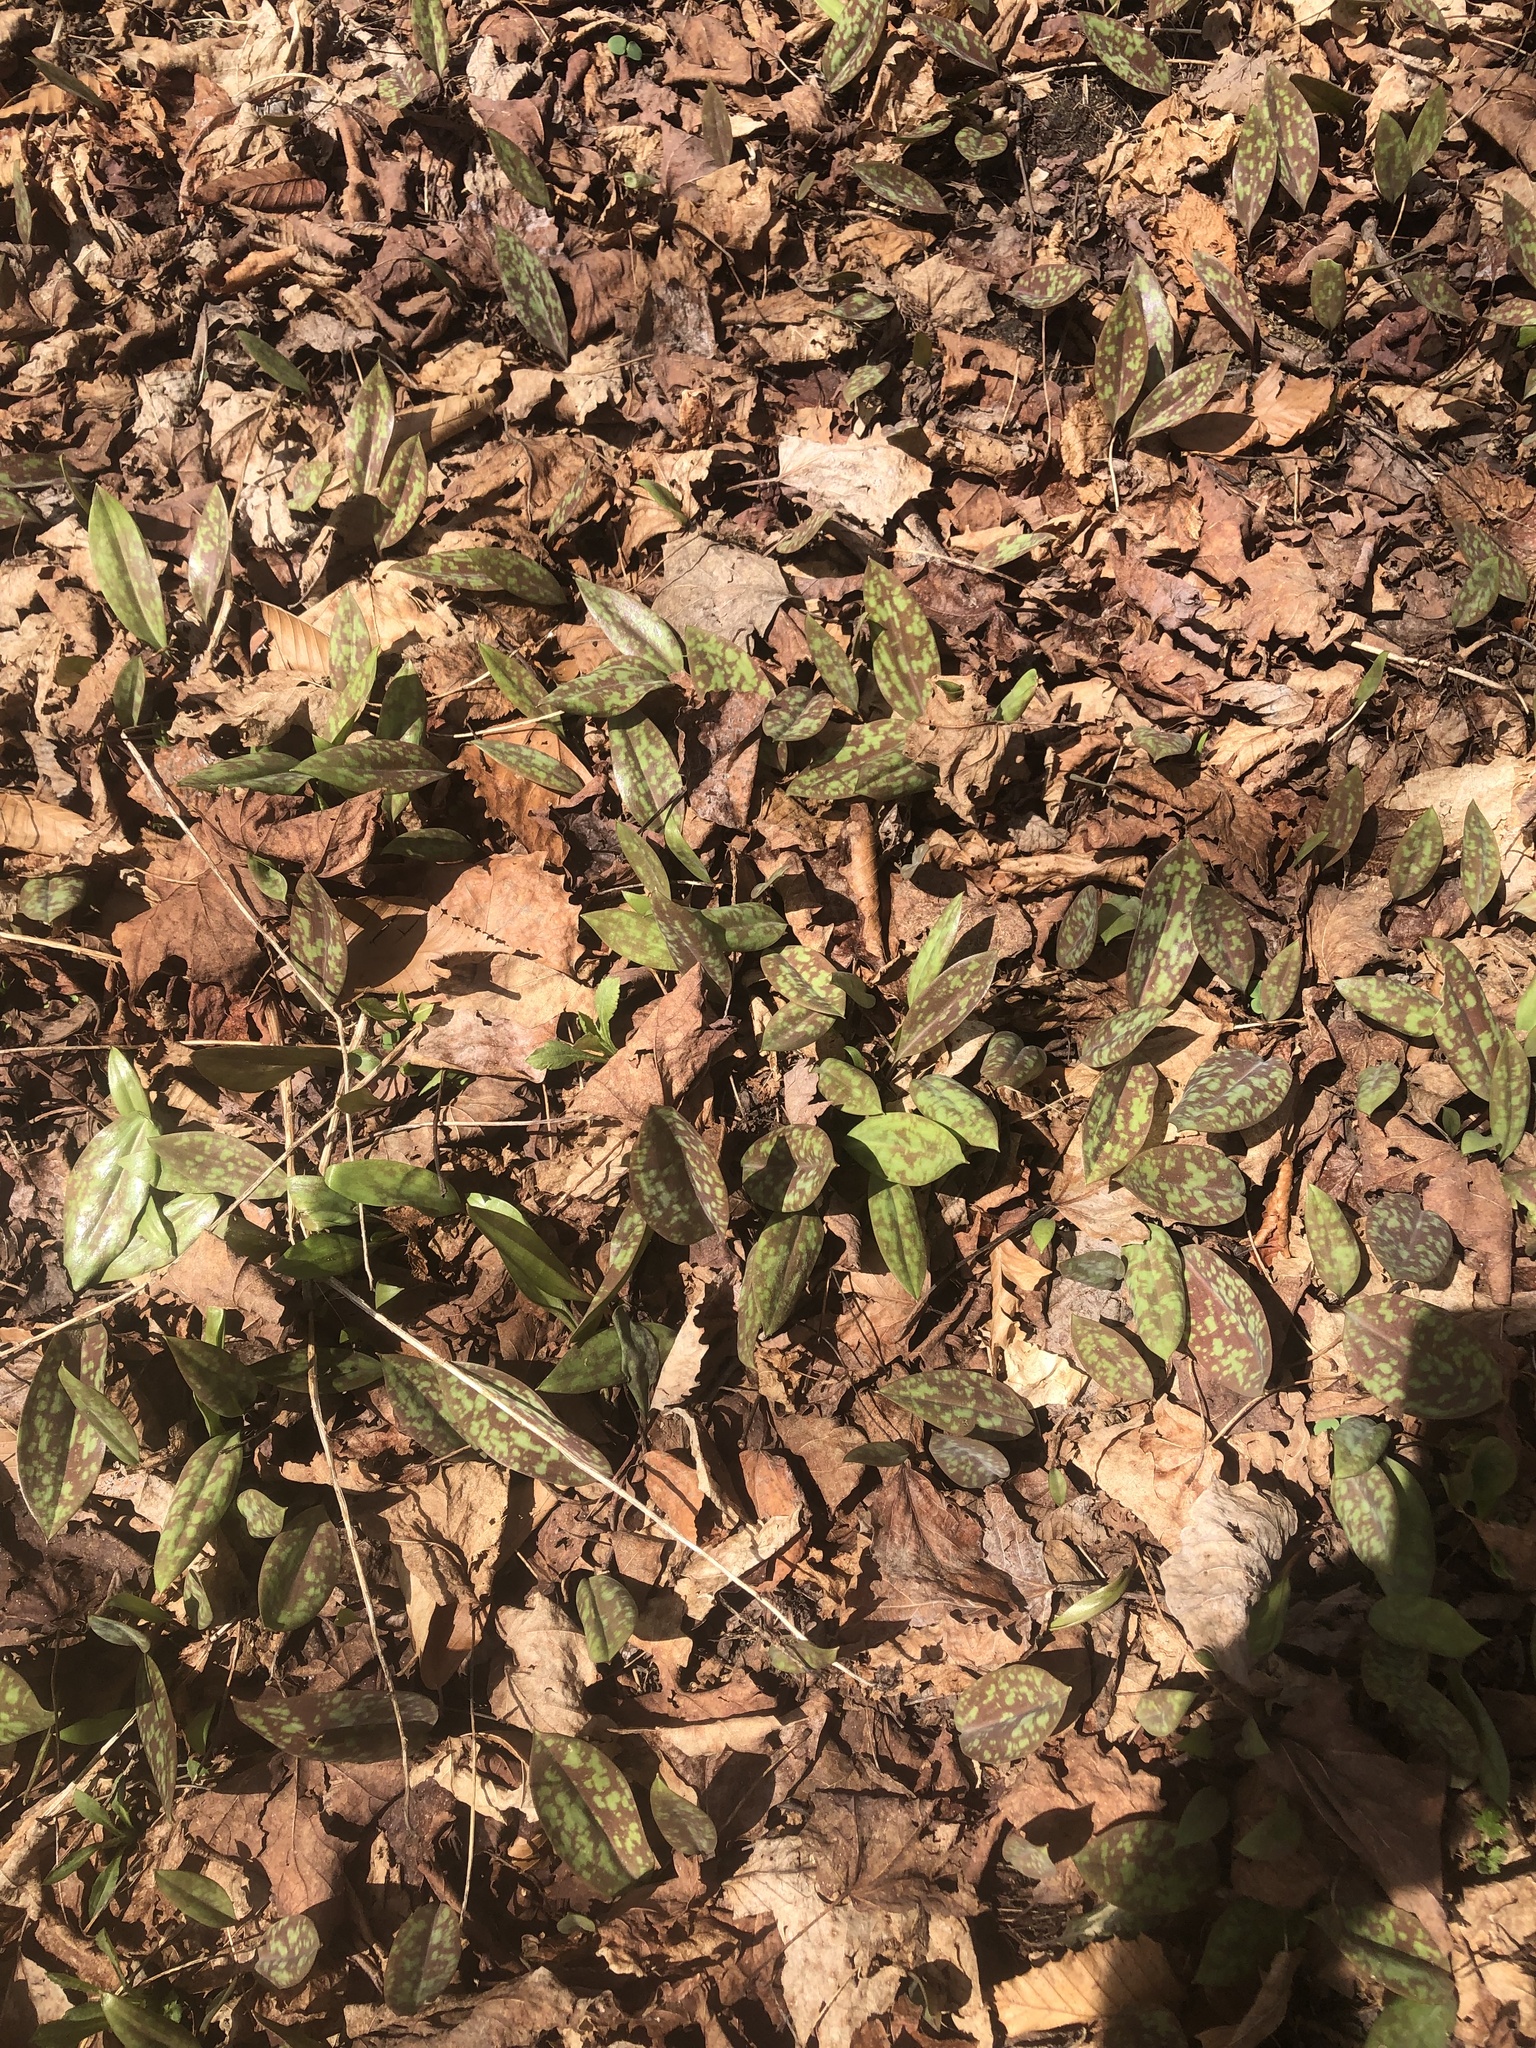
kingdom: Plantae
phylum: Tracheophyta
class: Liliopsida
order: Liliales
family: Liliaceae
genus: Erythronium
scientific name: Erythronium americanum
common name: Yellow adder's-tongue
